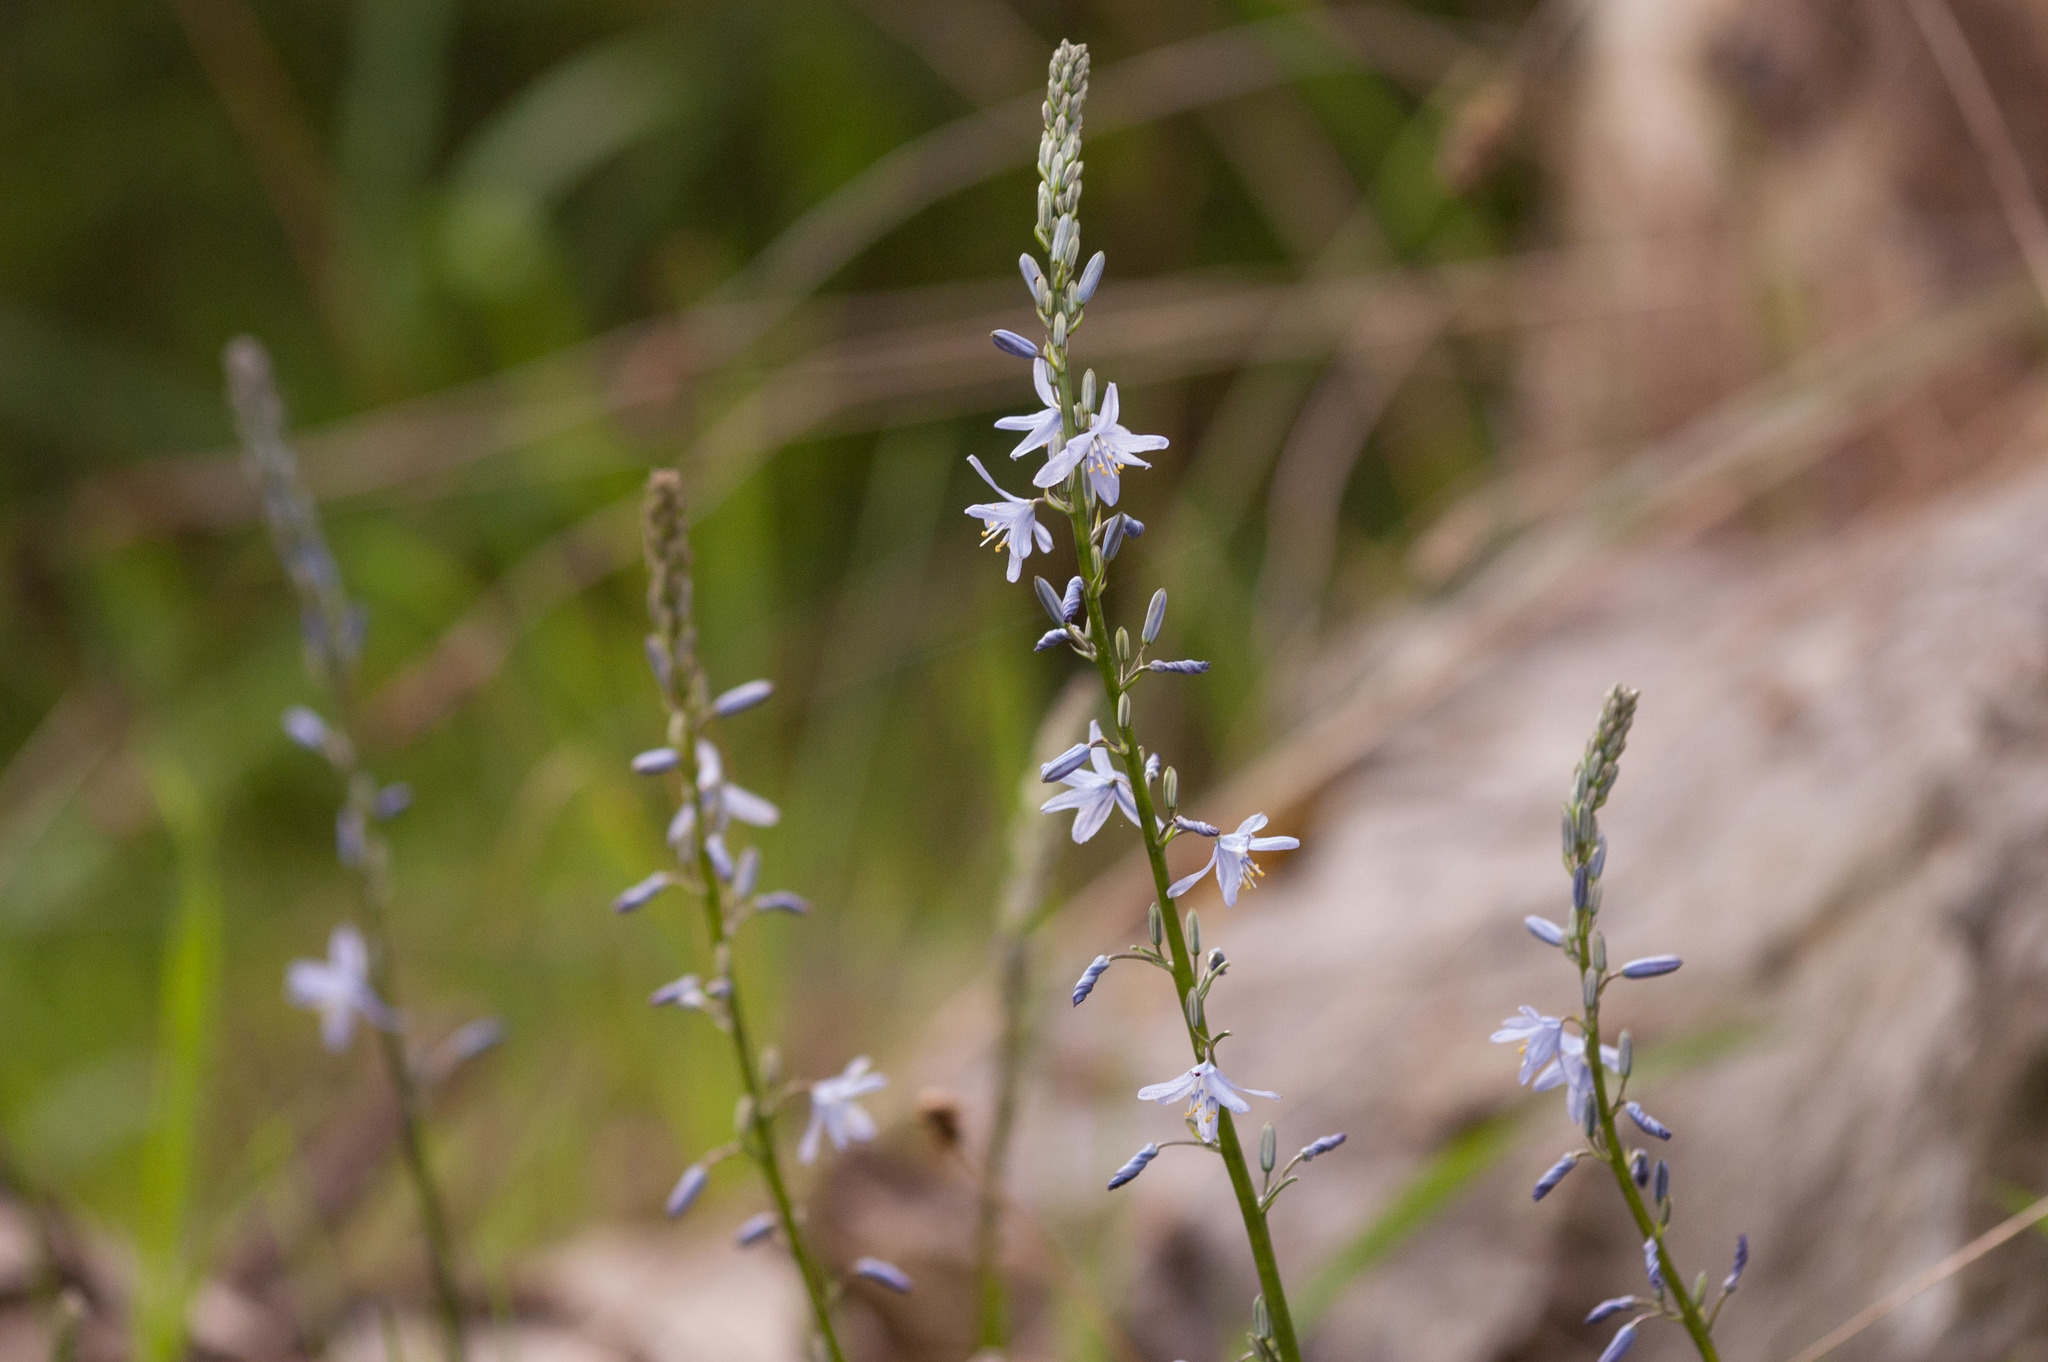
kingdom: Plantae
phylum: Tracheophyta
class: Liliopsida
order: Asparagales
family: Asphodelaceae
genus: Caesia
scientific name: Caesia calliantha
